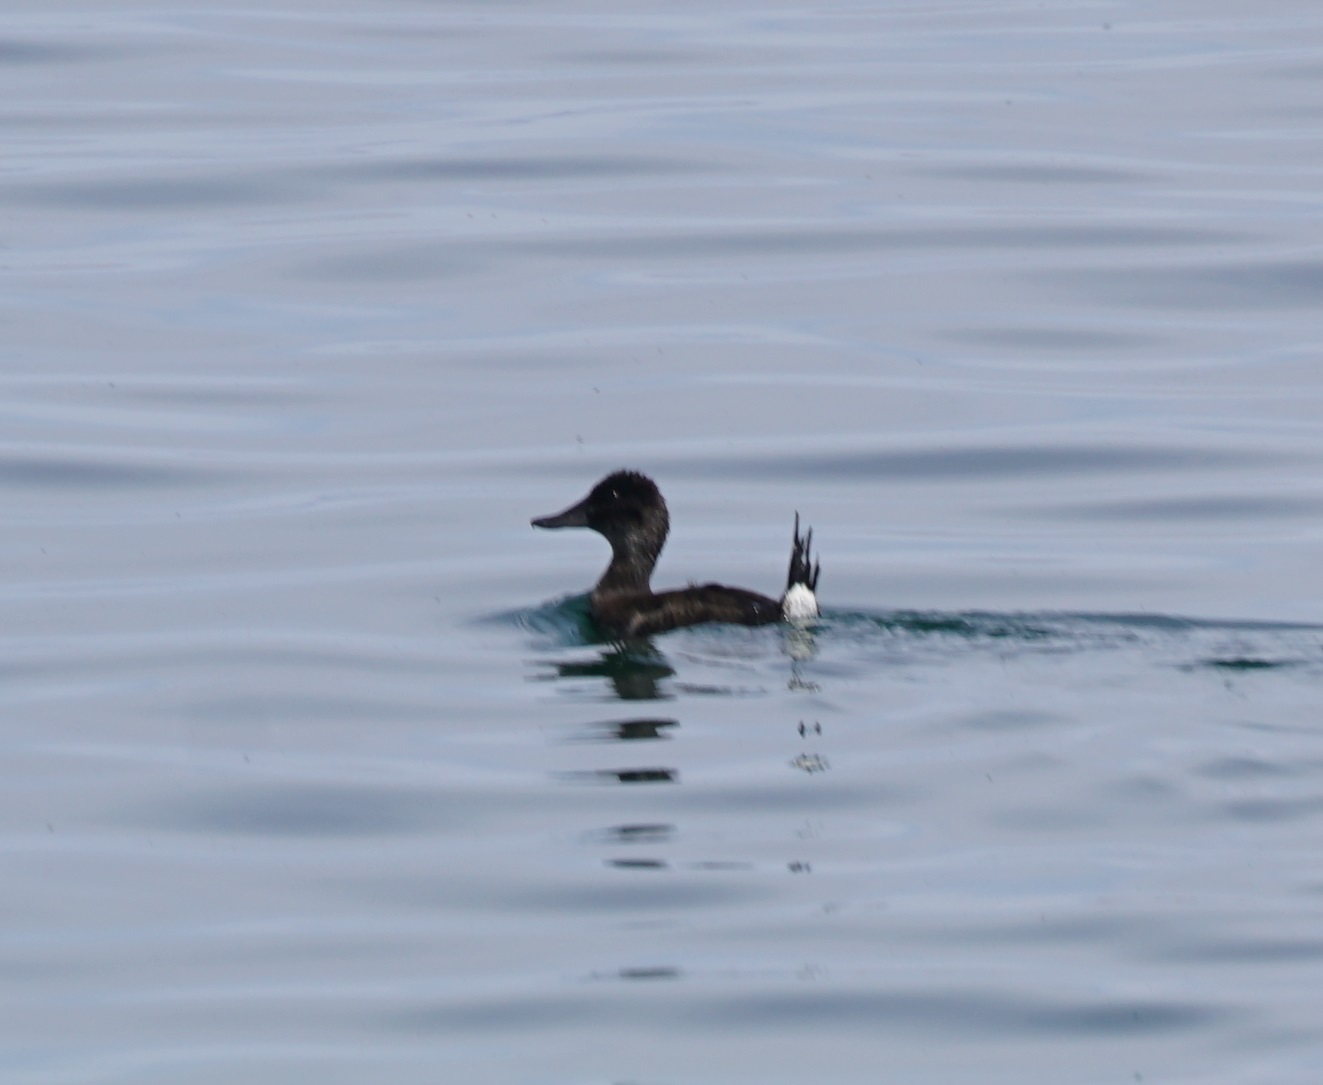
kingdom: Animalia
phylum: Chordata
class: Aves
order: Anseriformes
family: Anatidae
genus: Oxyura
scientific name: Oxyura ferruginea
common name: Andean duck
